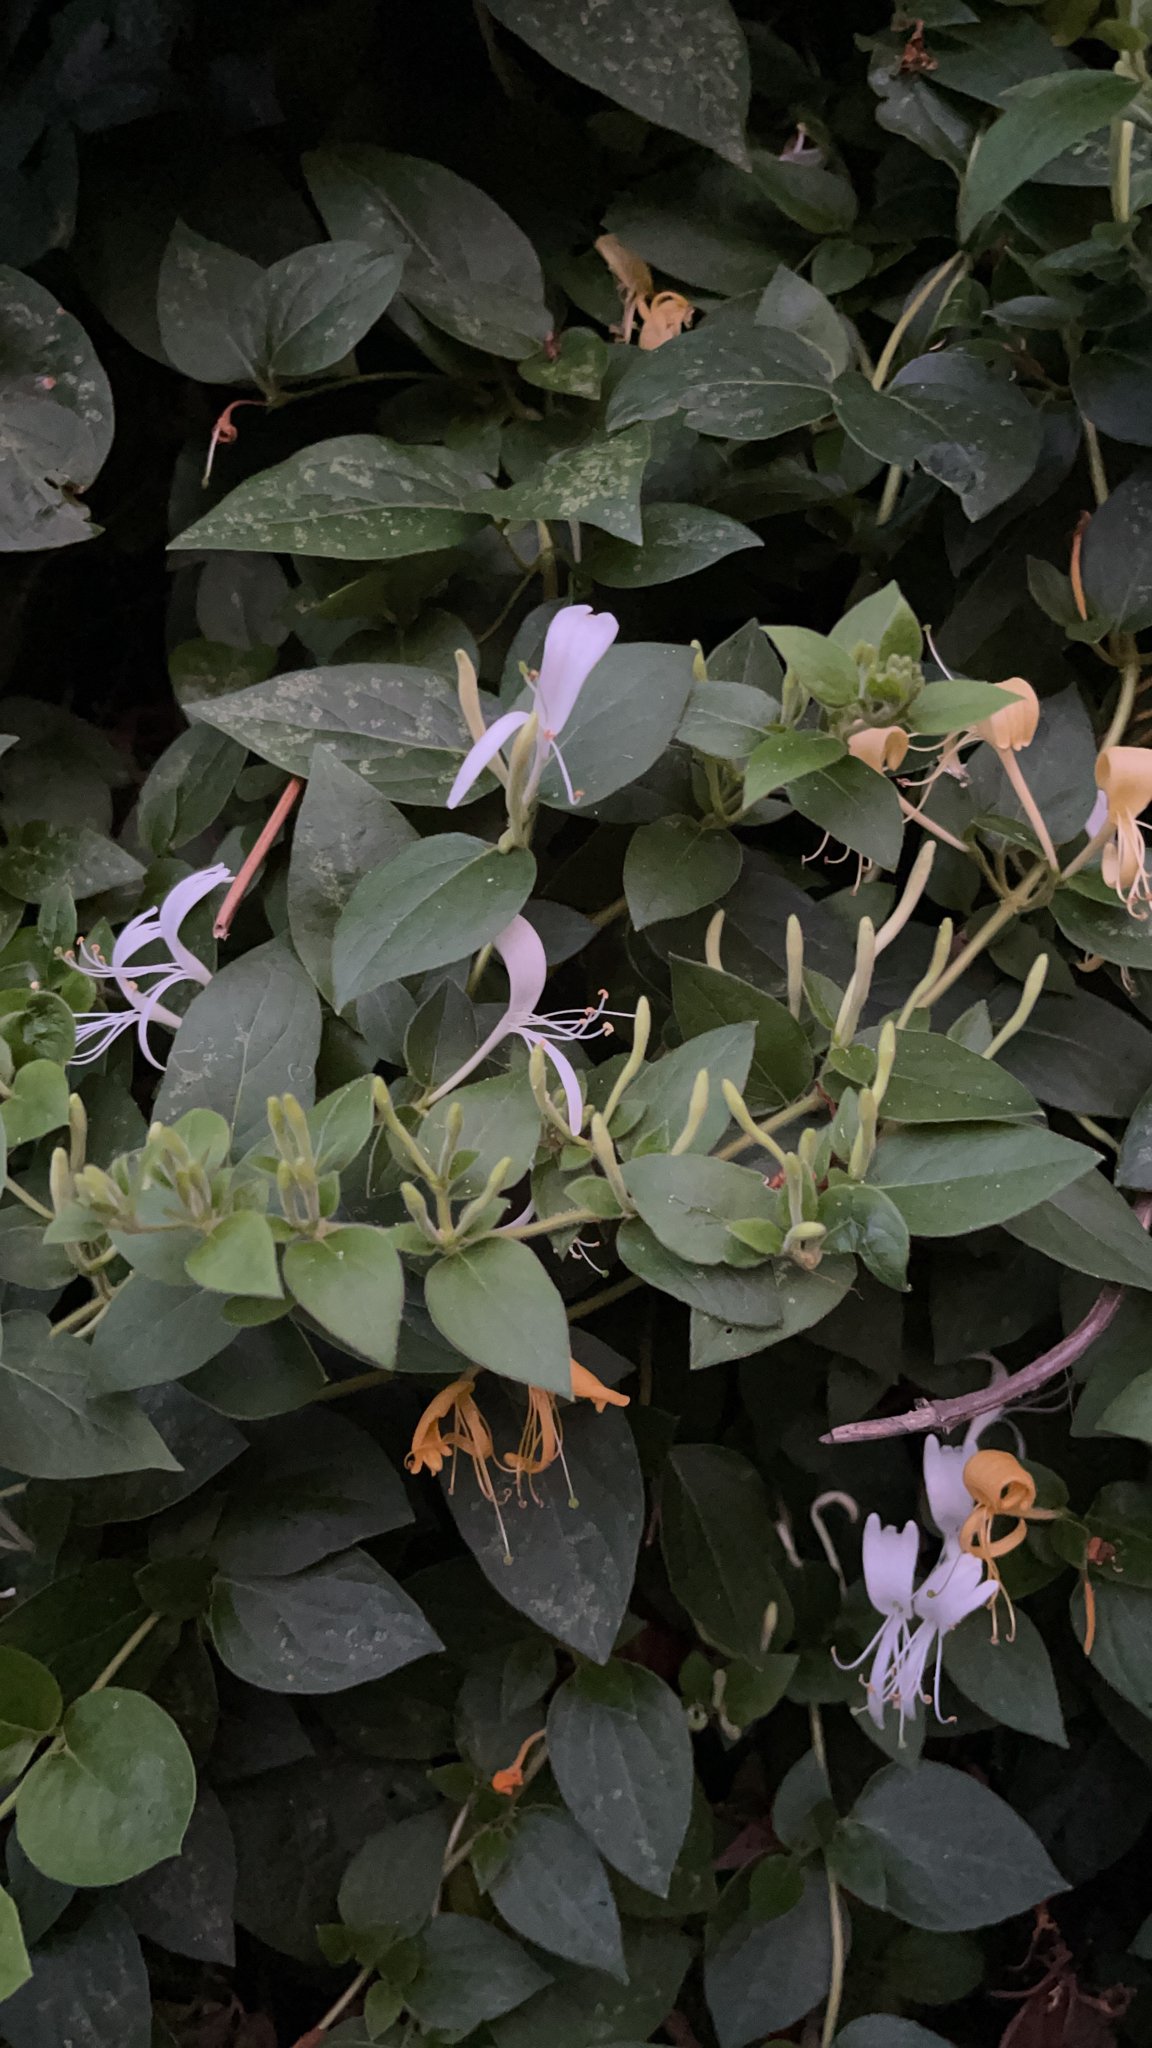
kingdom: Plantae
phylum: Tracheophyta
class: Magnoliopsida
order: Dipsacales
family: Caprifoliaceae
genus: Lonicera
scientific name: Lonicera japonica
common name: Japanese honeysuckle
